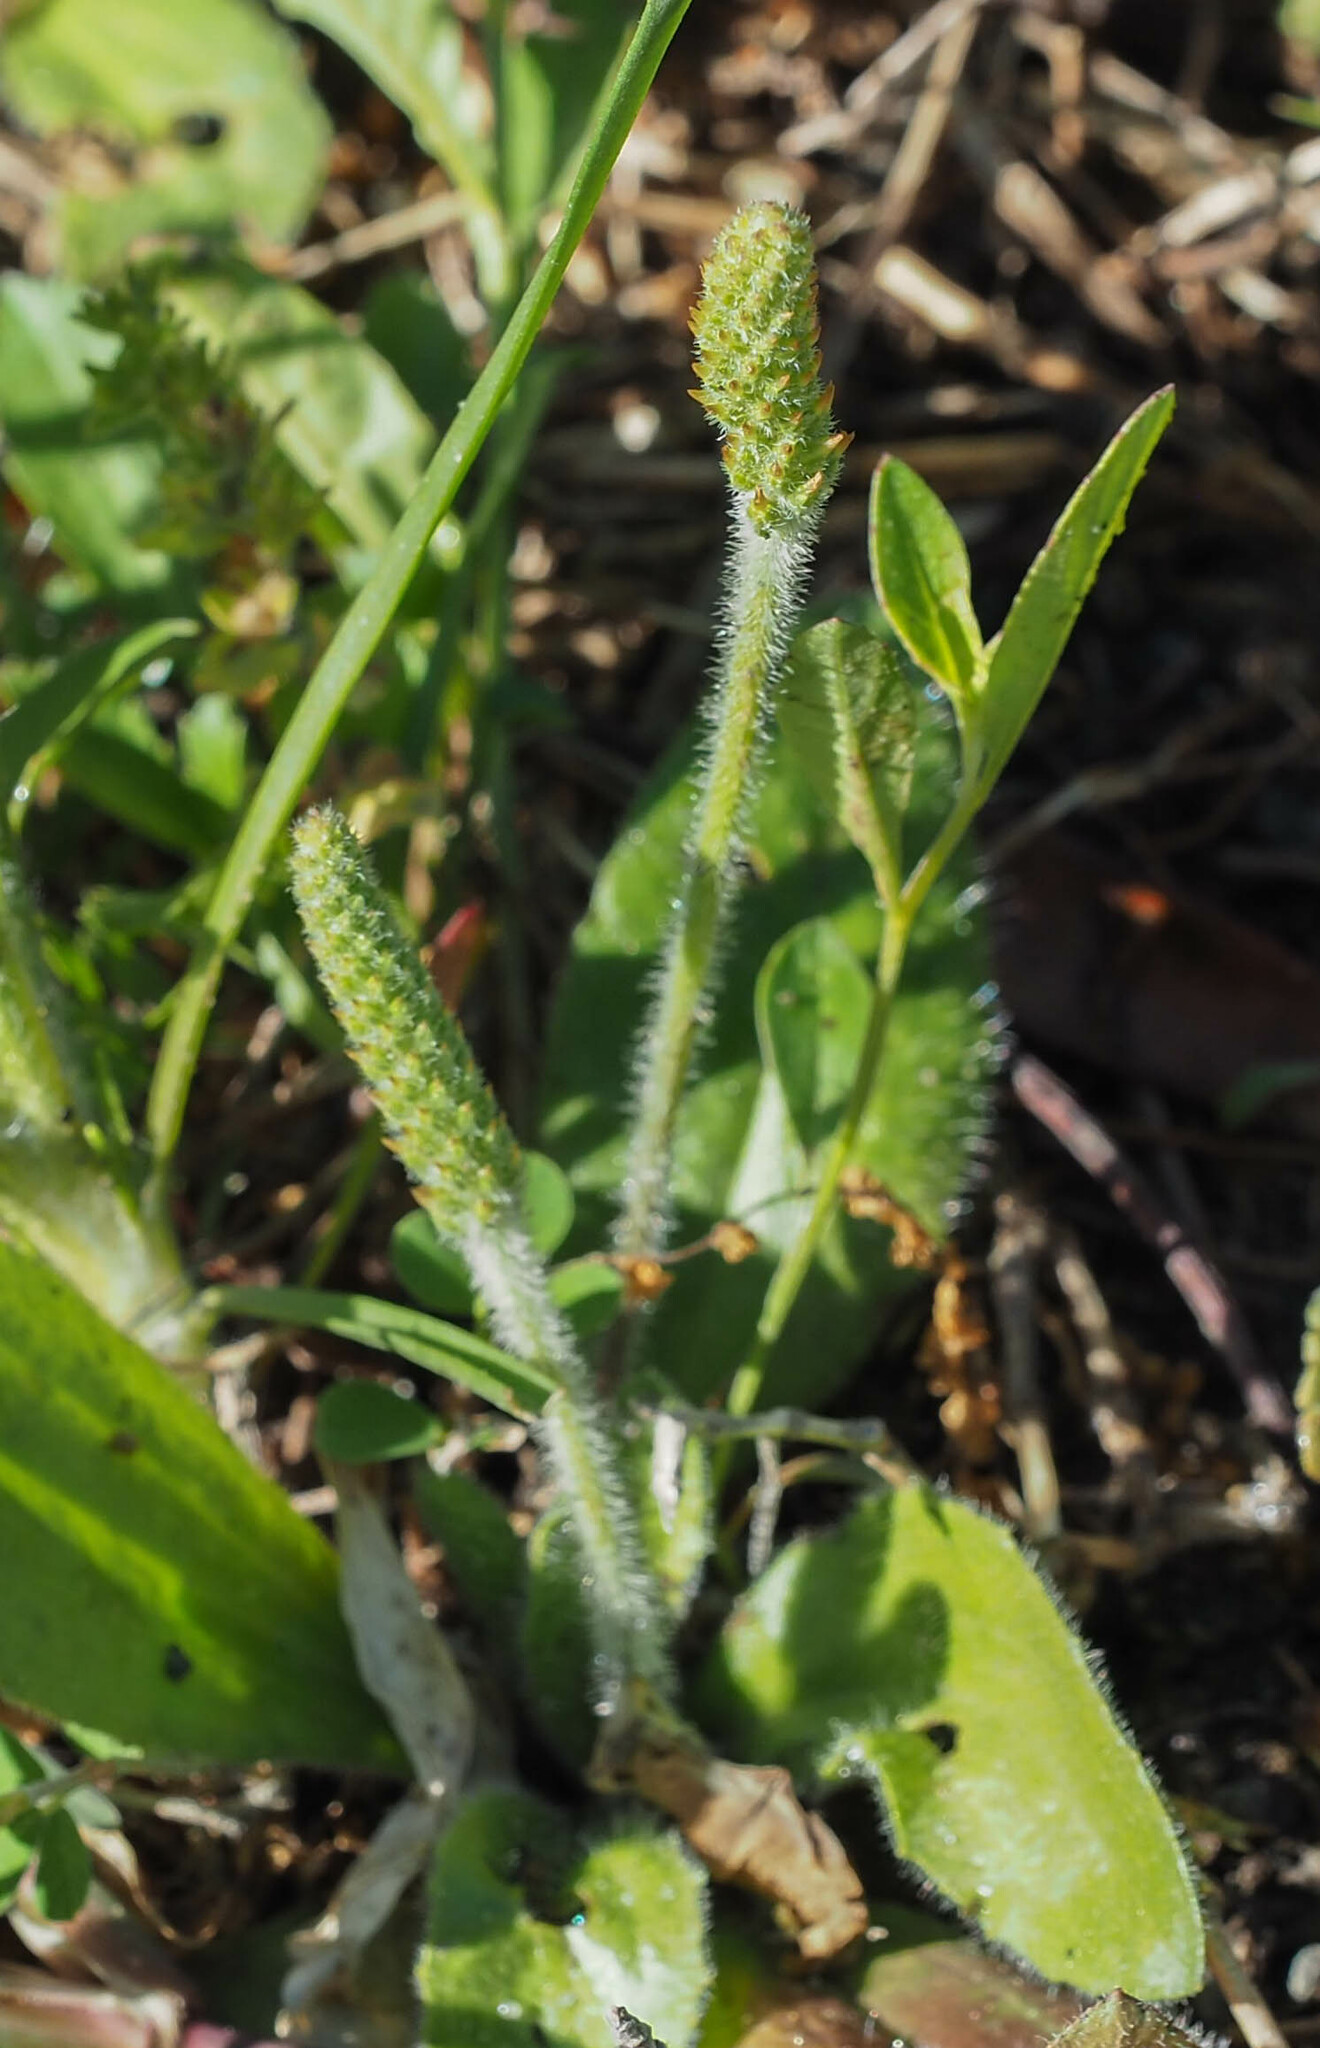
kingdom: Plantae
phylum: Tracheophyta
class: Magnoliopsida
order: Lamiales
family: Plantaginaceae
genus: Plantago
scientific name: Plantago virginica
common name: Hoary plantain
